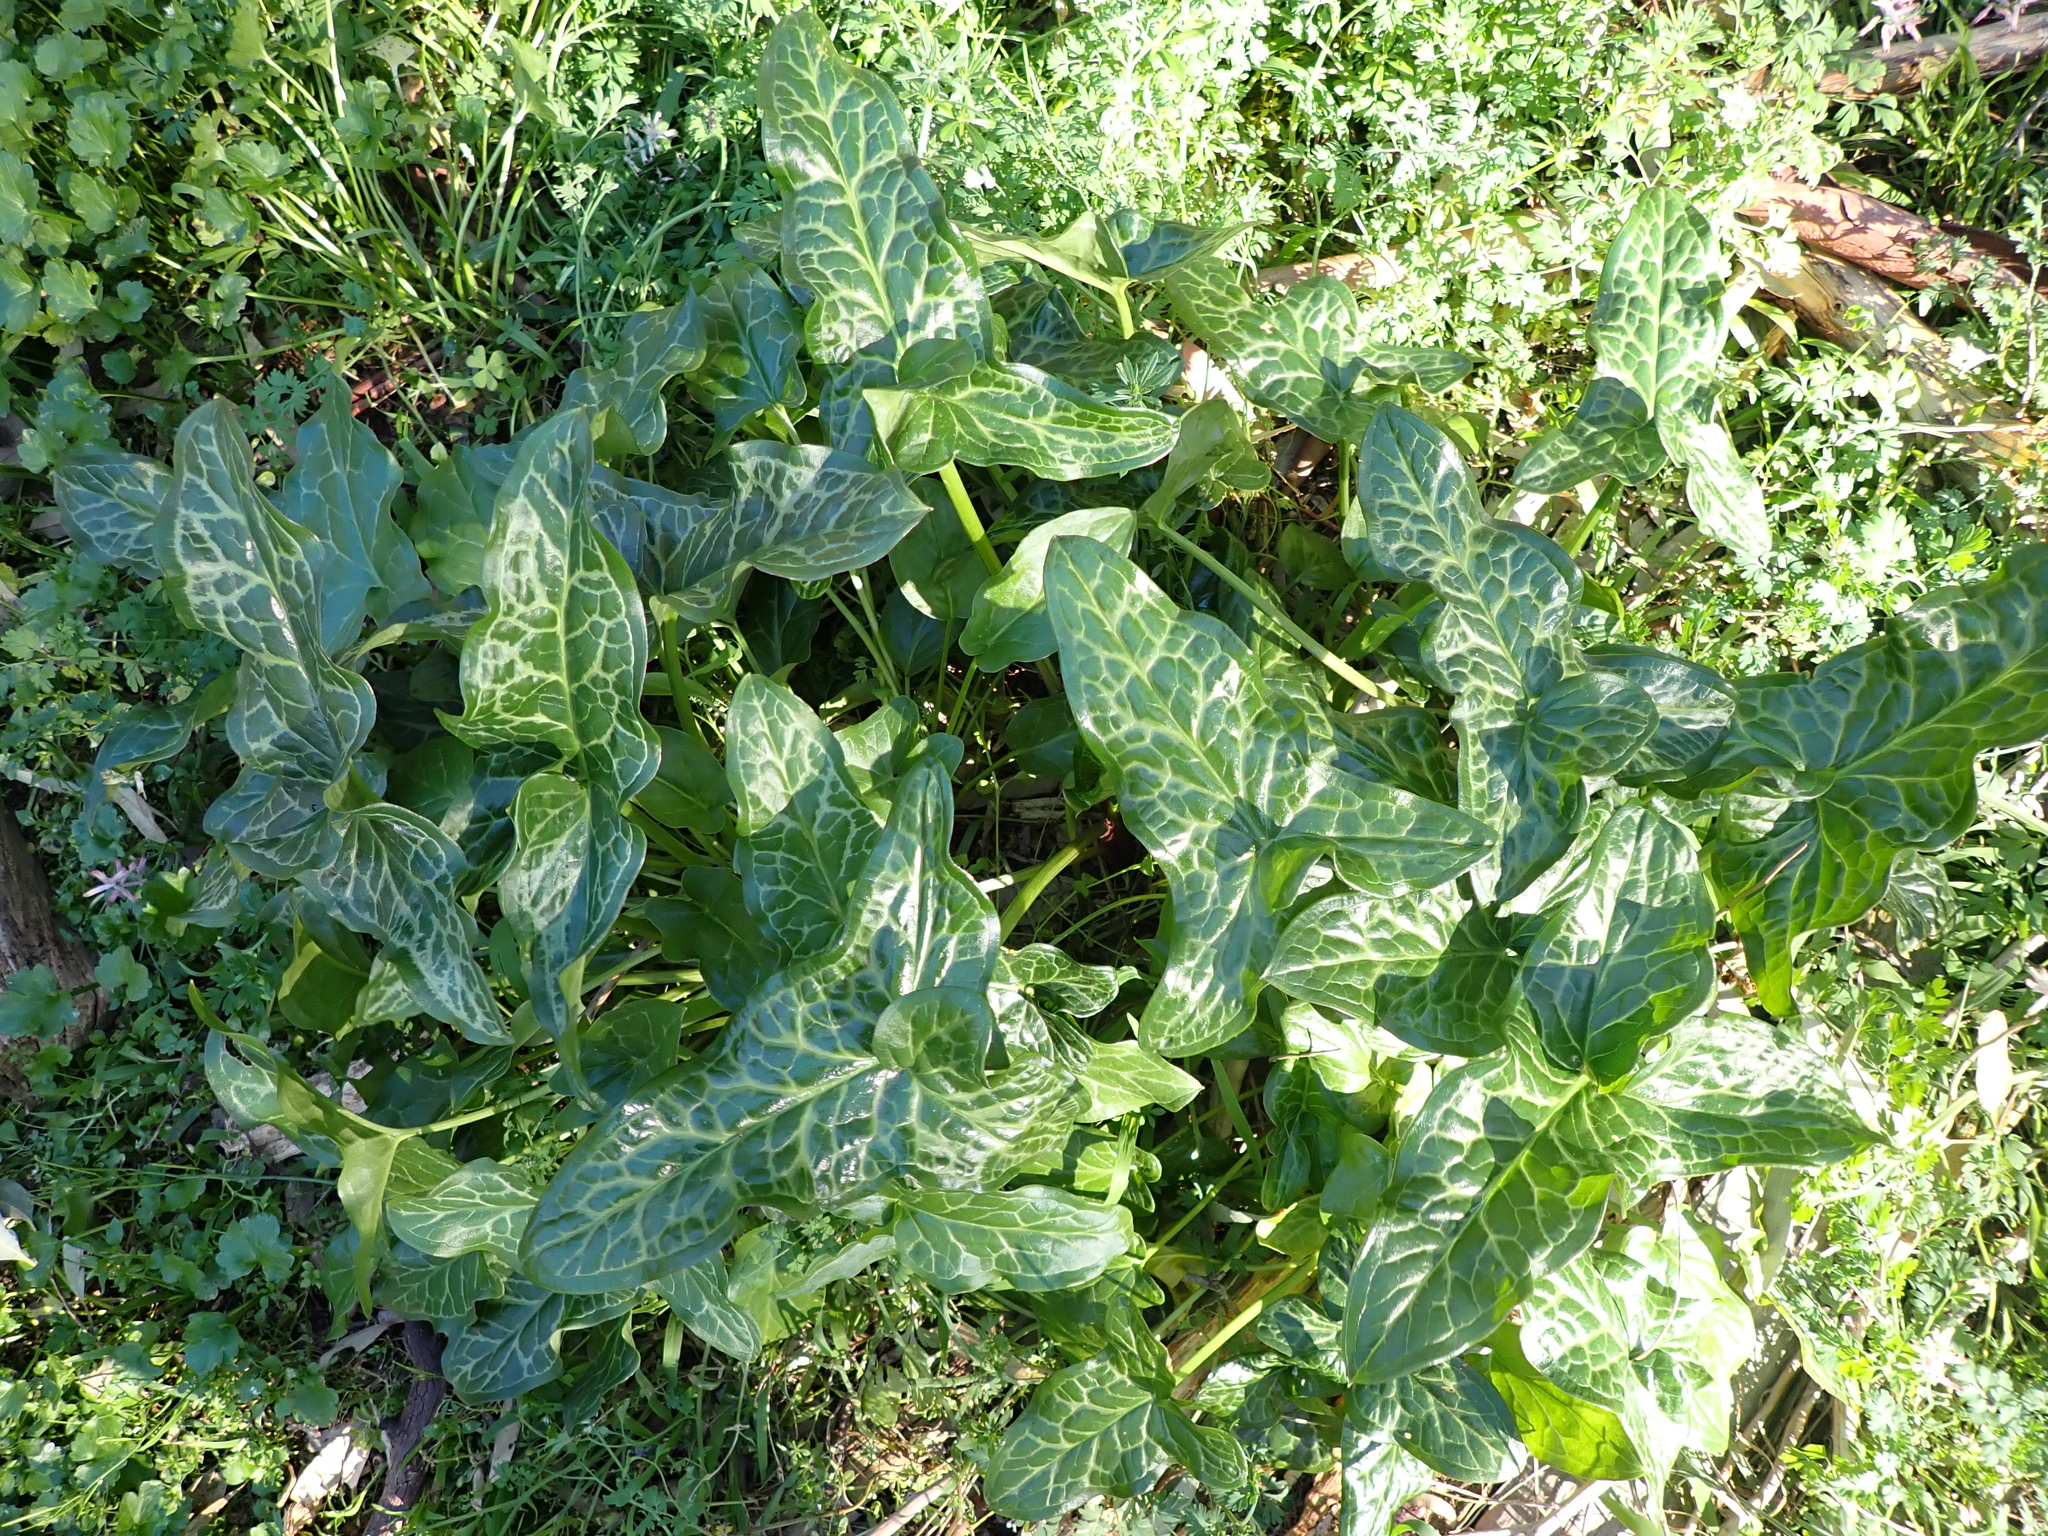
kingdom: Plantae
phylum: Tracheophyta
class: Liliopsida
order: Alismatales
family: Araceae
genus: Arum
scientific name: Arum italicum
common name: Italian lords-and-ladies
